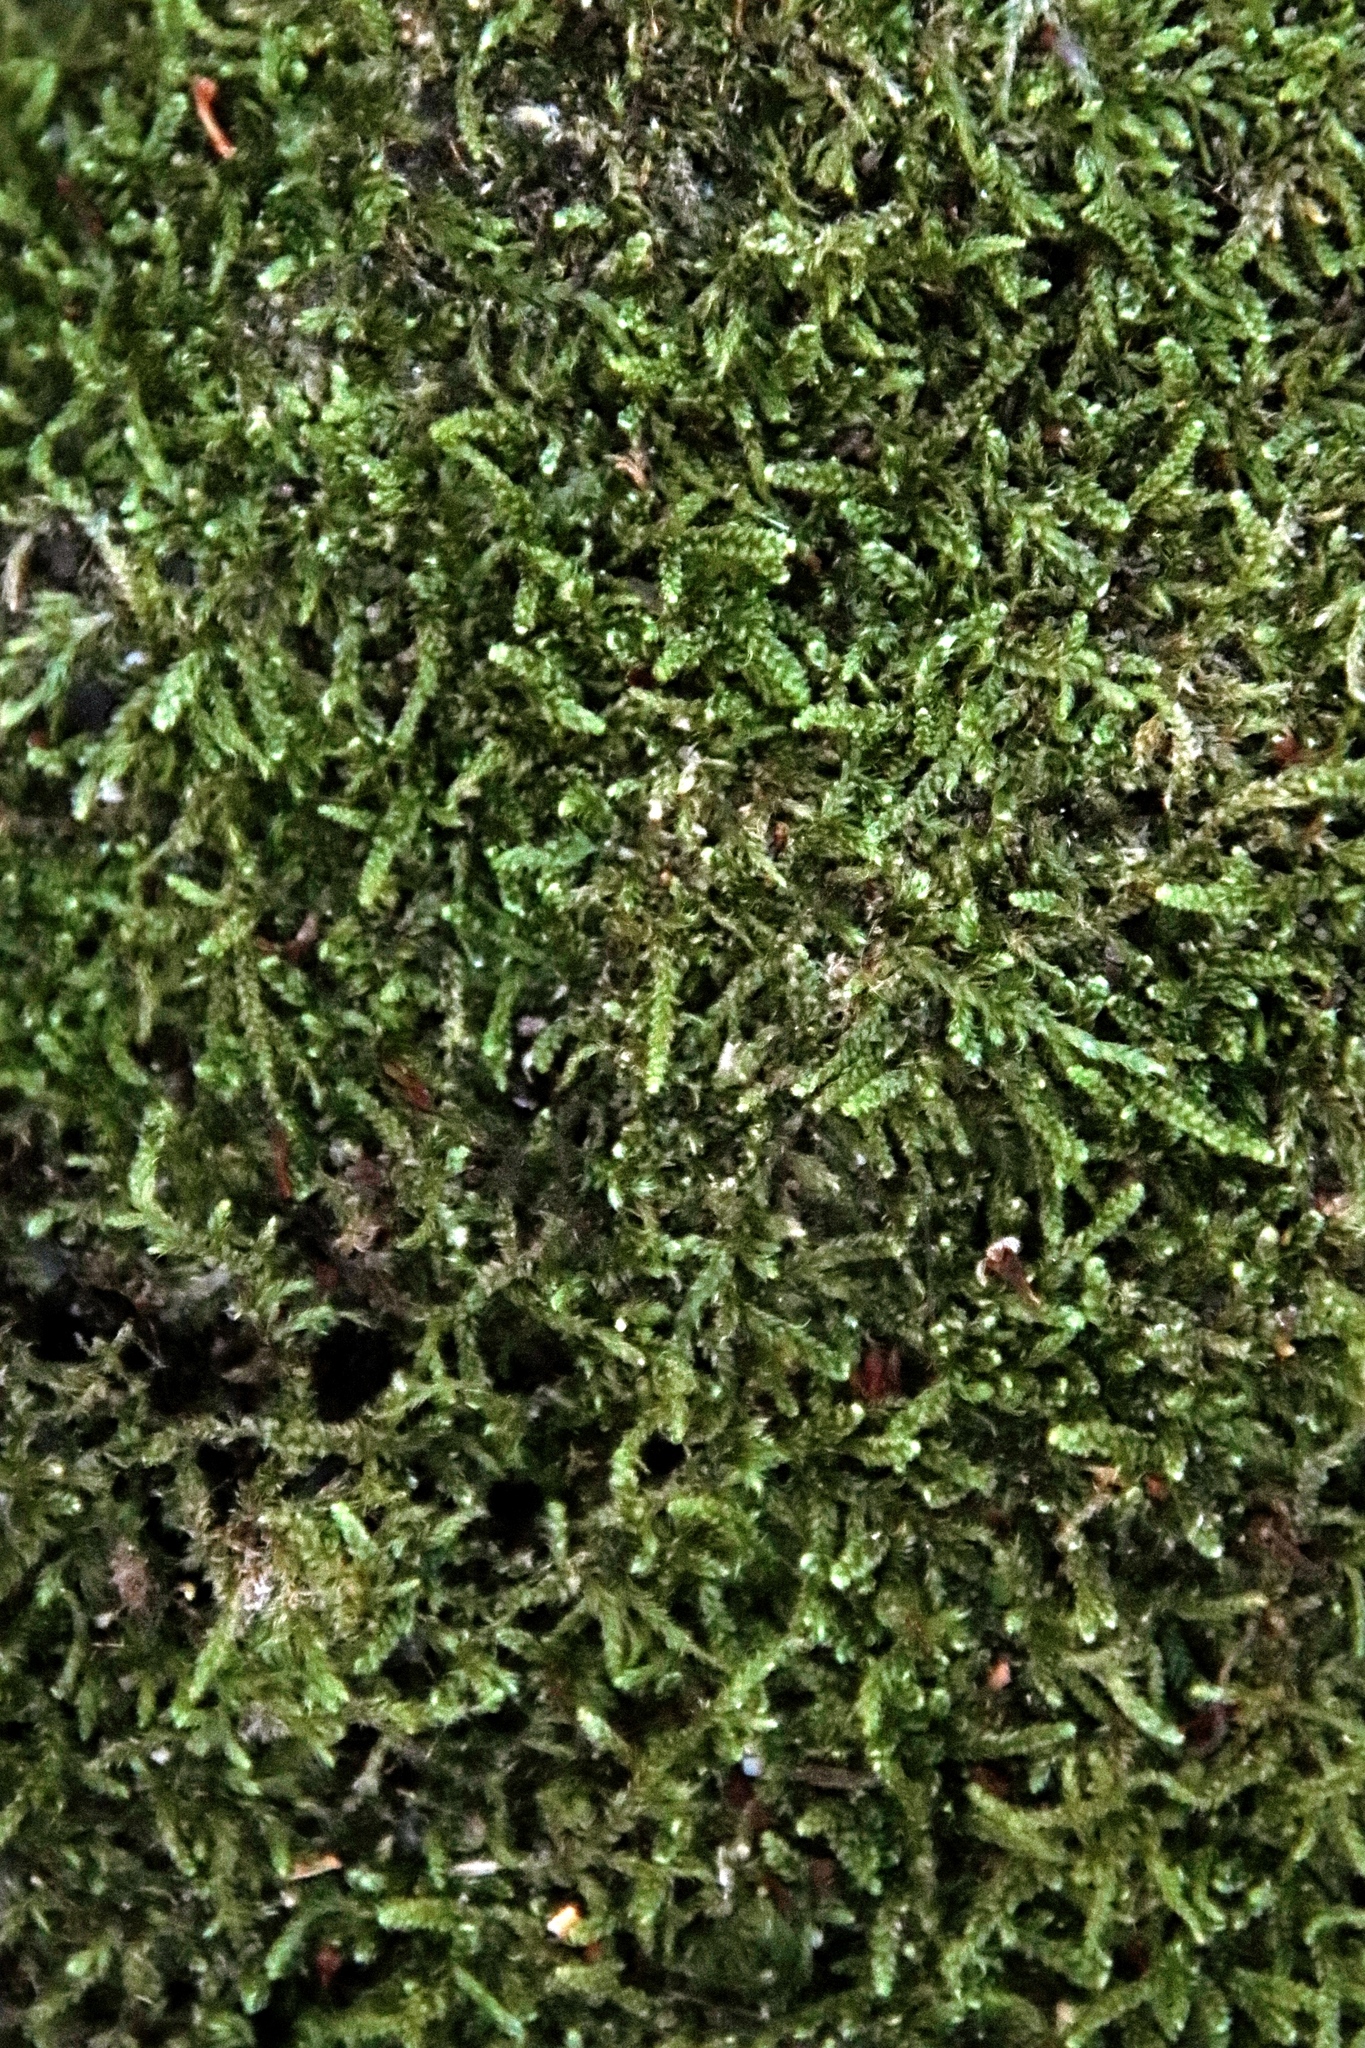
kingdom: Plantae
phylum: Bryophyta
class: Bryopsida
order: Hypnales
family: Hypnaceae
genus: Hypnum
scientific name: Hypnum cupressiforme
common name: Cypress-leaved plait-moss
